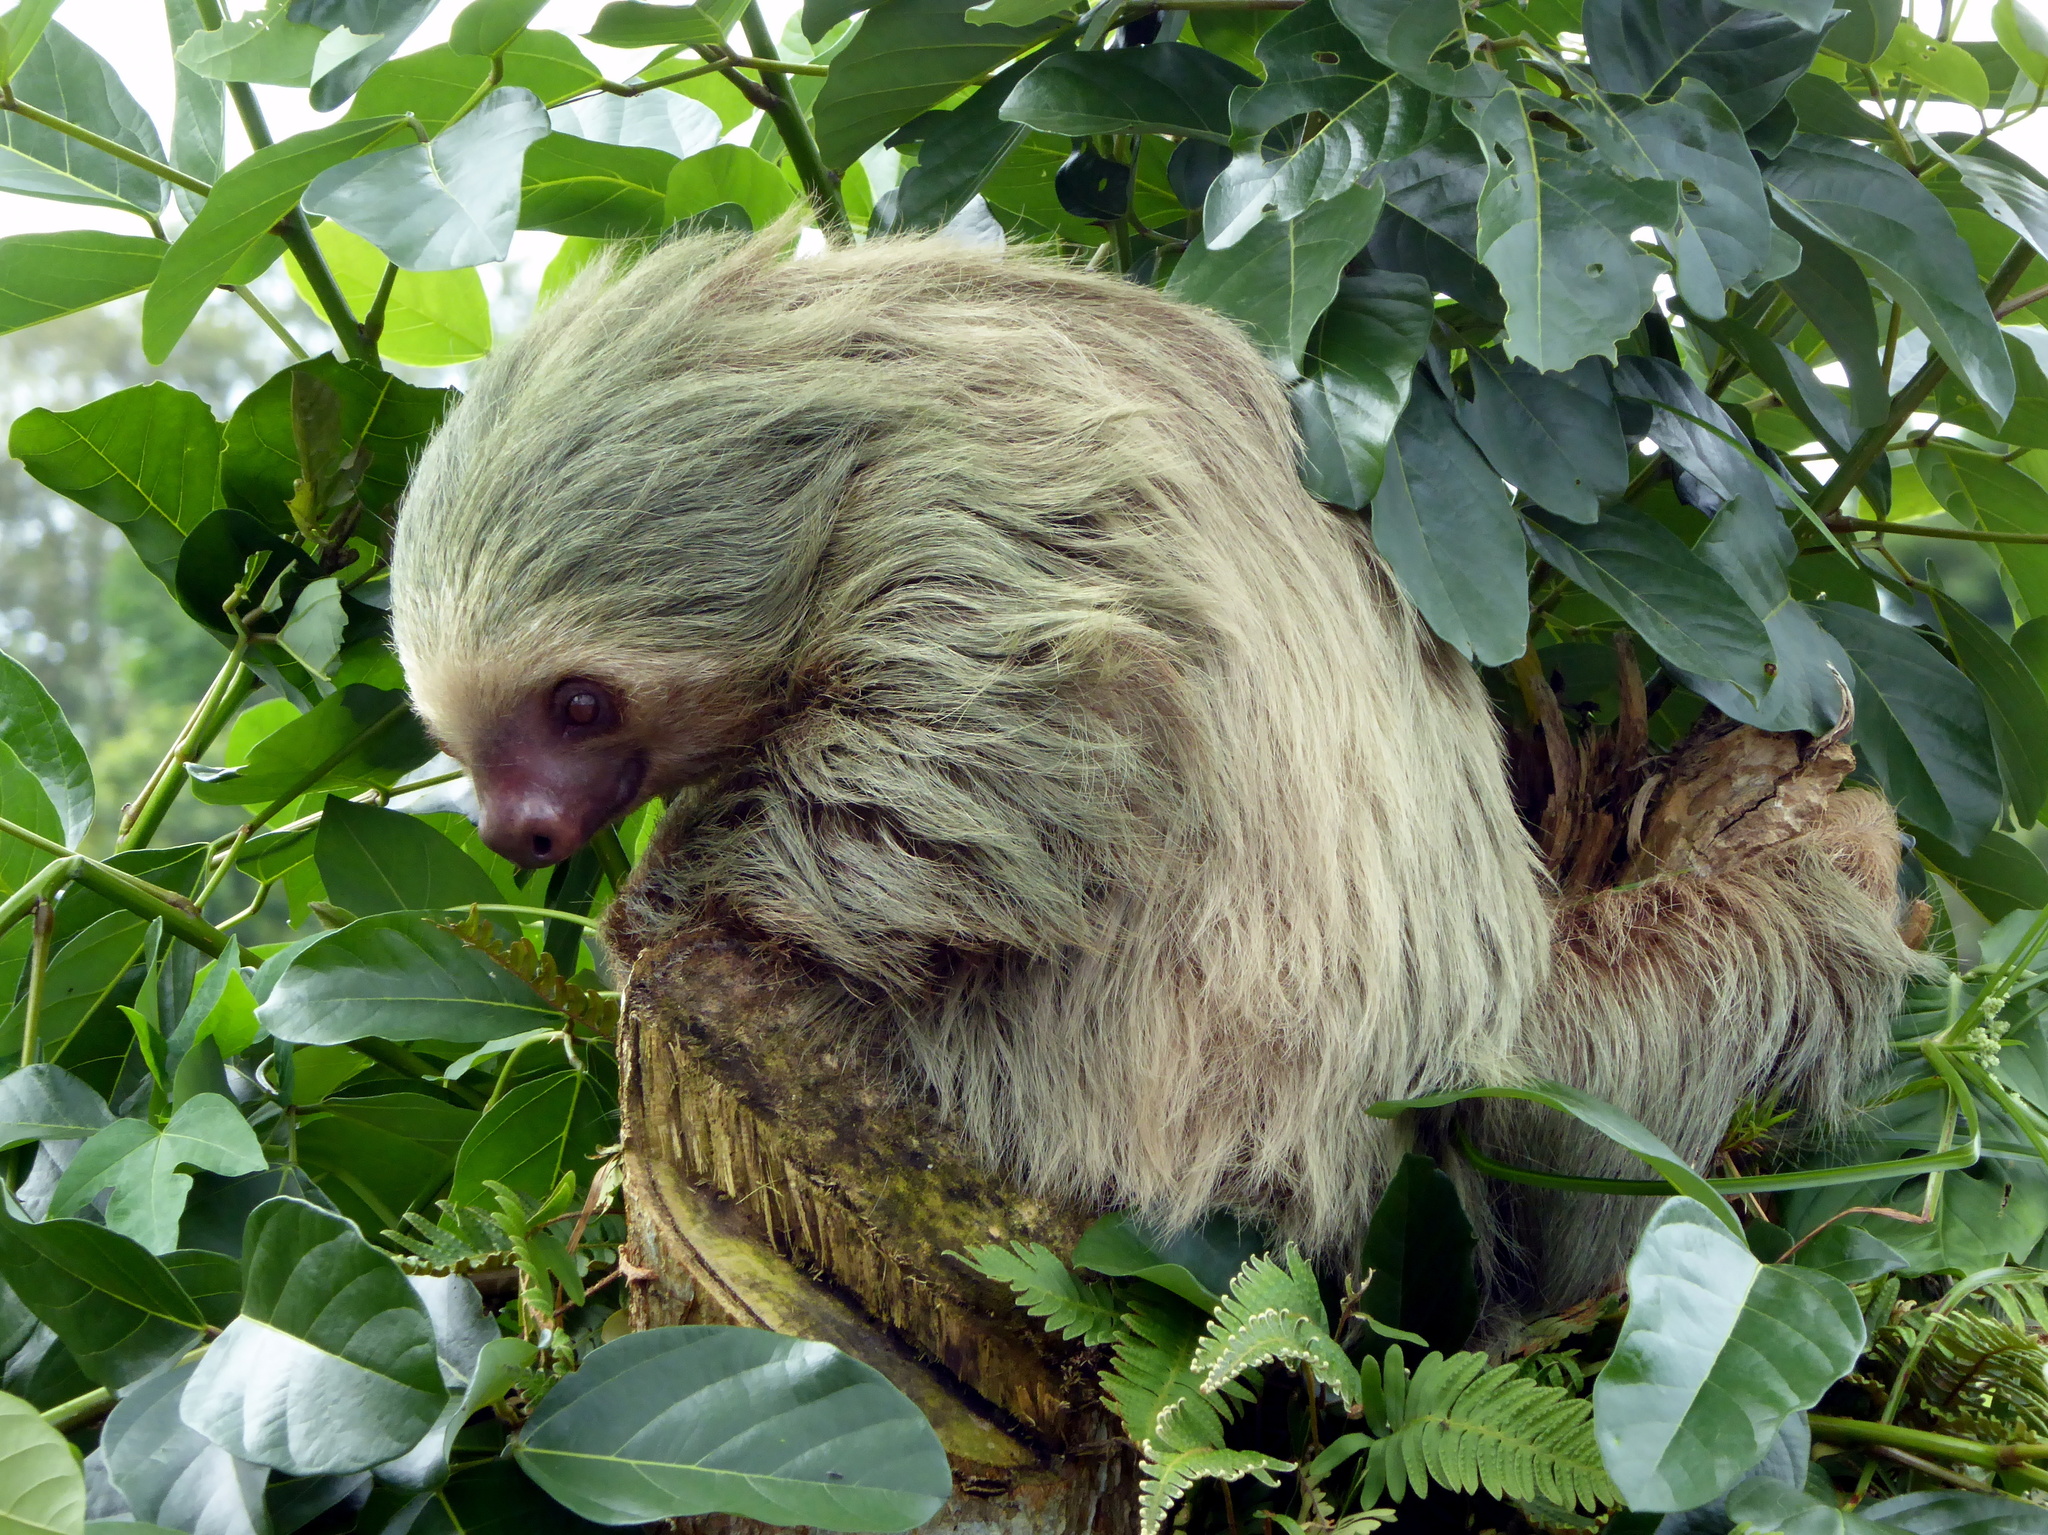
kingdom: Animalia
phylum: Chordata
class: Mammalia
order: Pilosa
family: Megalonychidae
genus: Choloepus
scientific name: Choloepus hoffmanni
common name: Hoffmann's two-toed sloth
